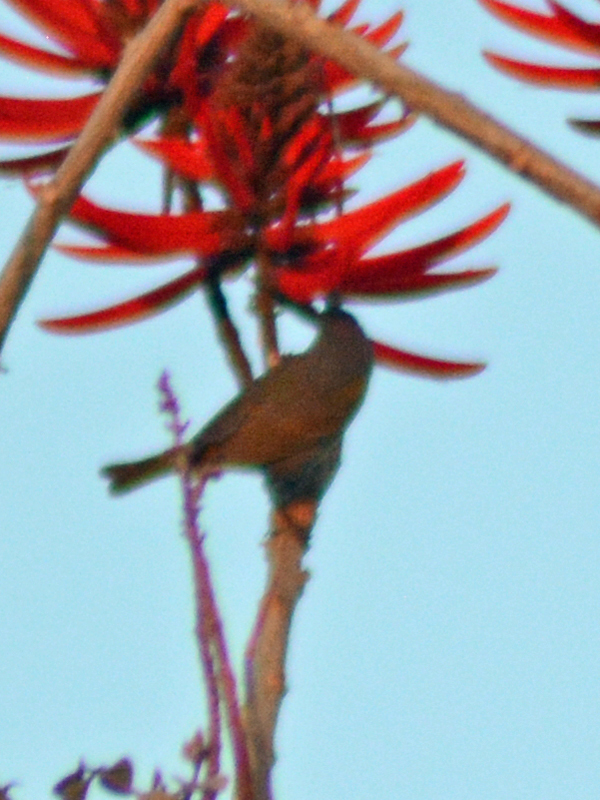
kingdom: Animalia
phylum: Chordata
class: Aves
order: Passeriformes
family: Thraupidae
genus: Diglossa
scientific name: Diglossa baritula
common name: Cinnamon-bellied flowerpiercer
